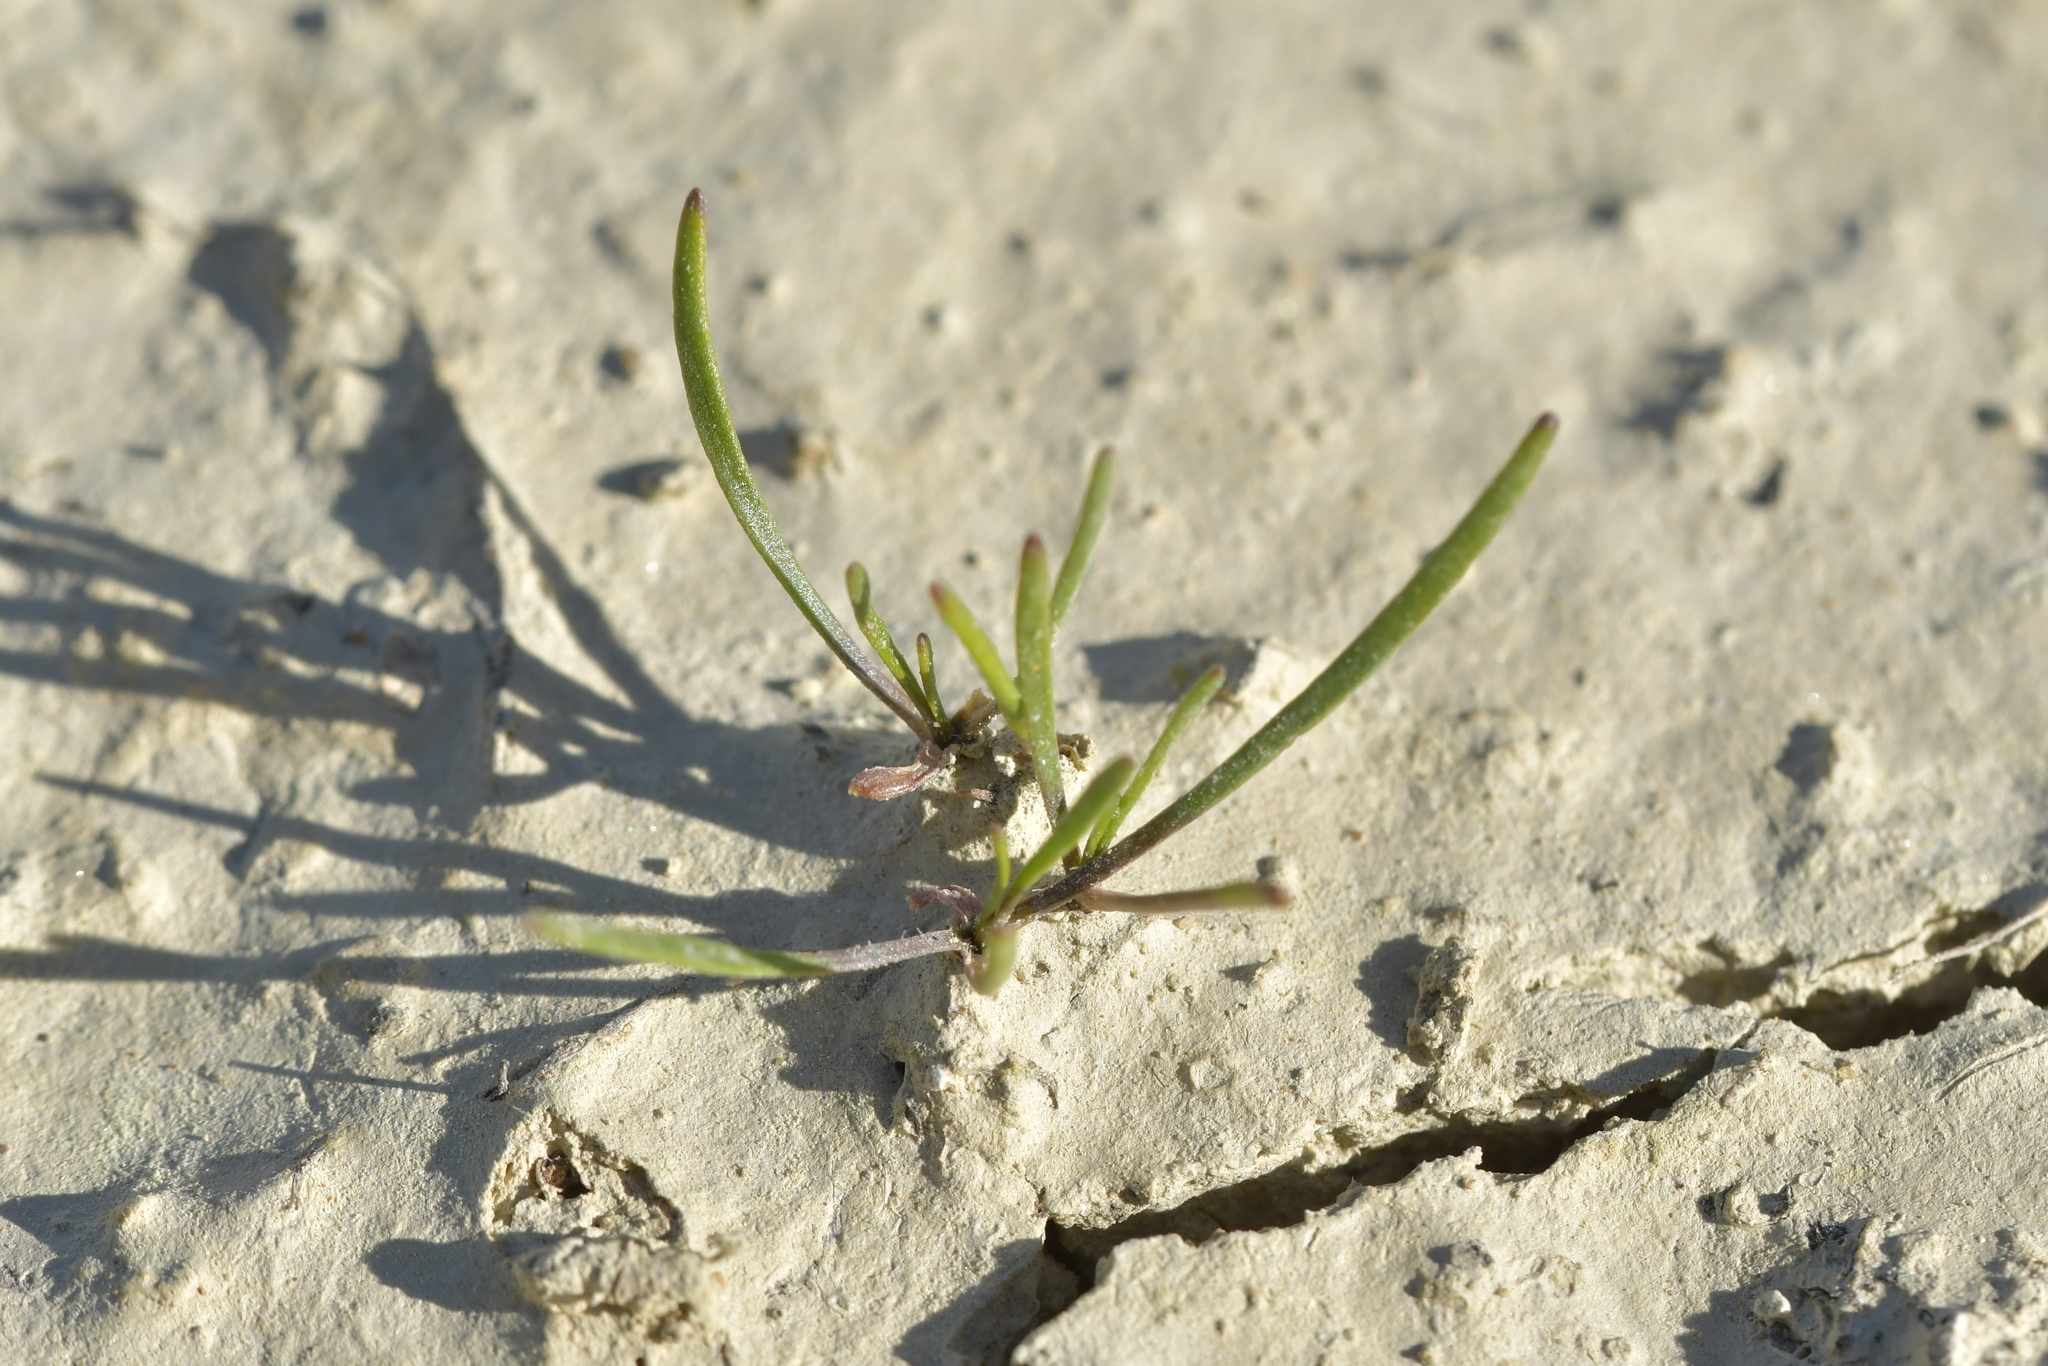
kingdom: Plantae
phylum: Tracheophyta
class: Magnoliopsida
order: Brassicales
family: Brassicaceae
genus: Lepidium
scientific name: Lepidium kirkii
